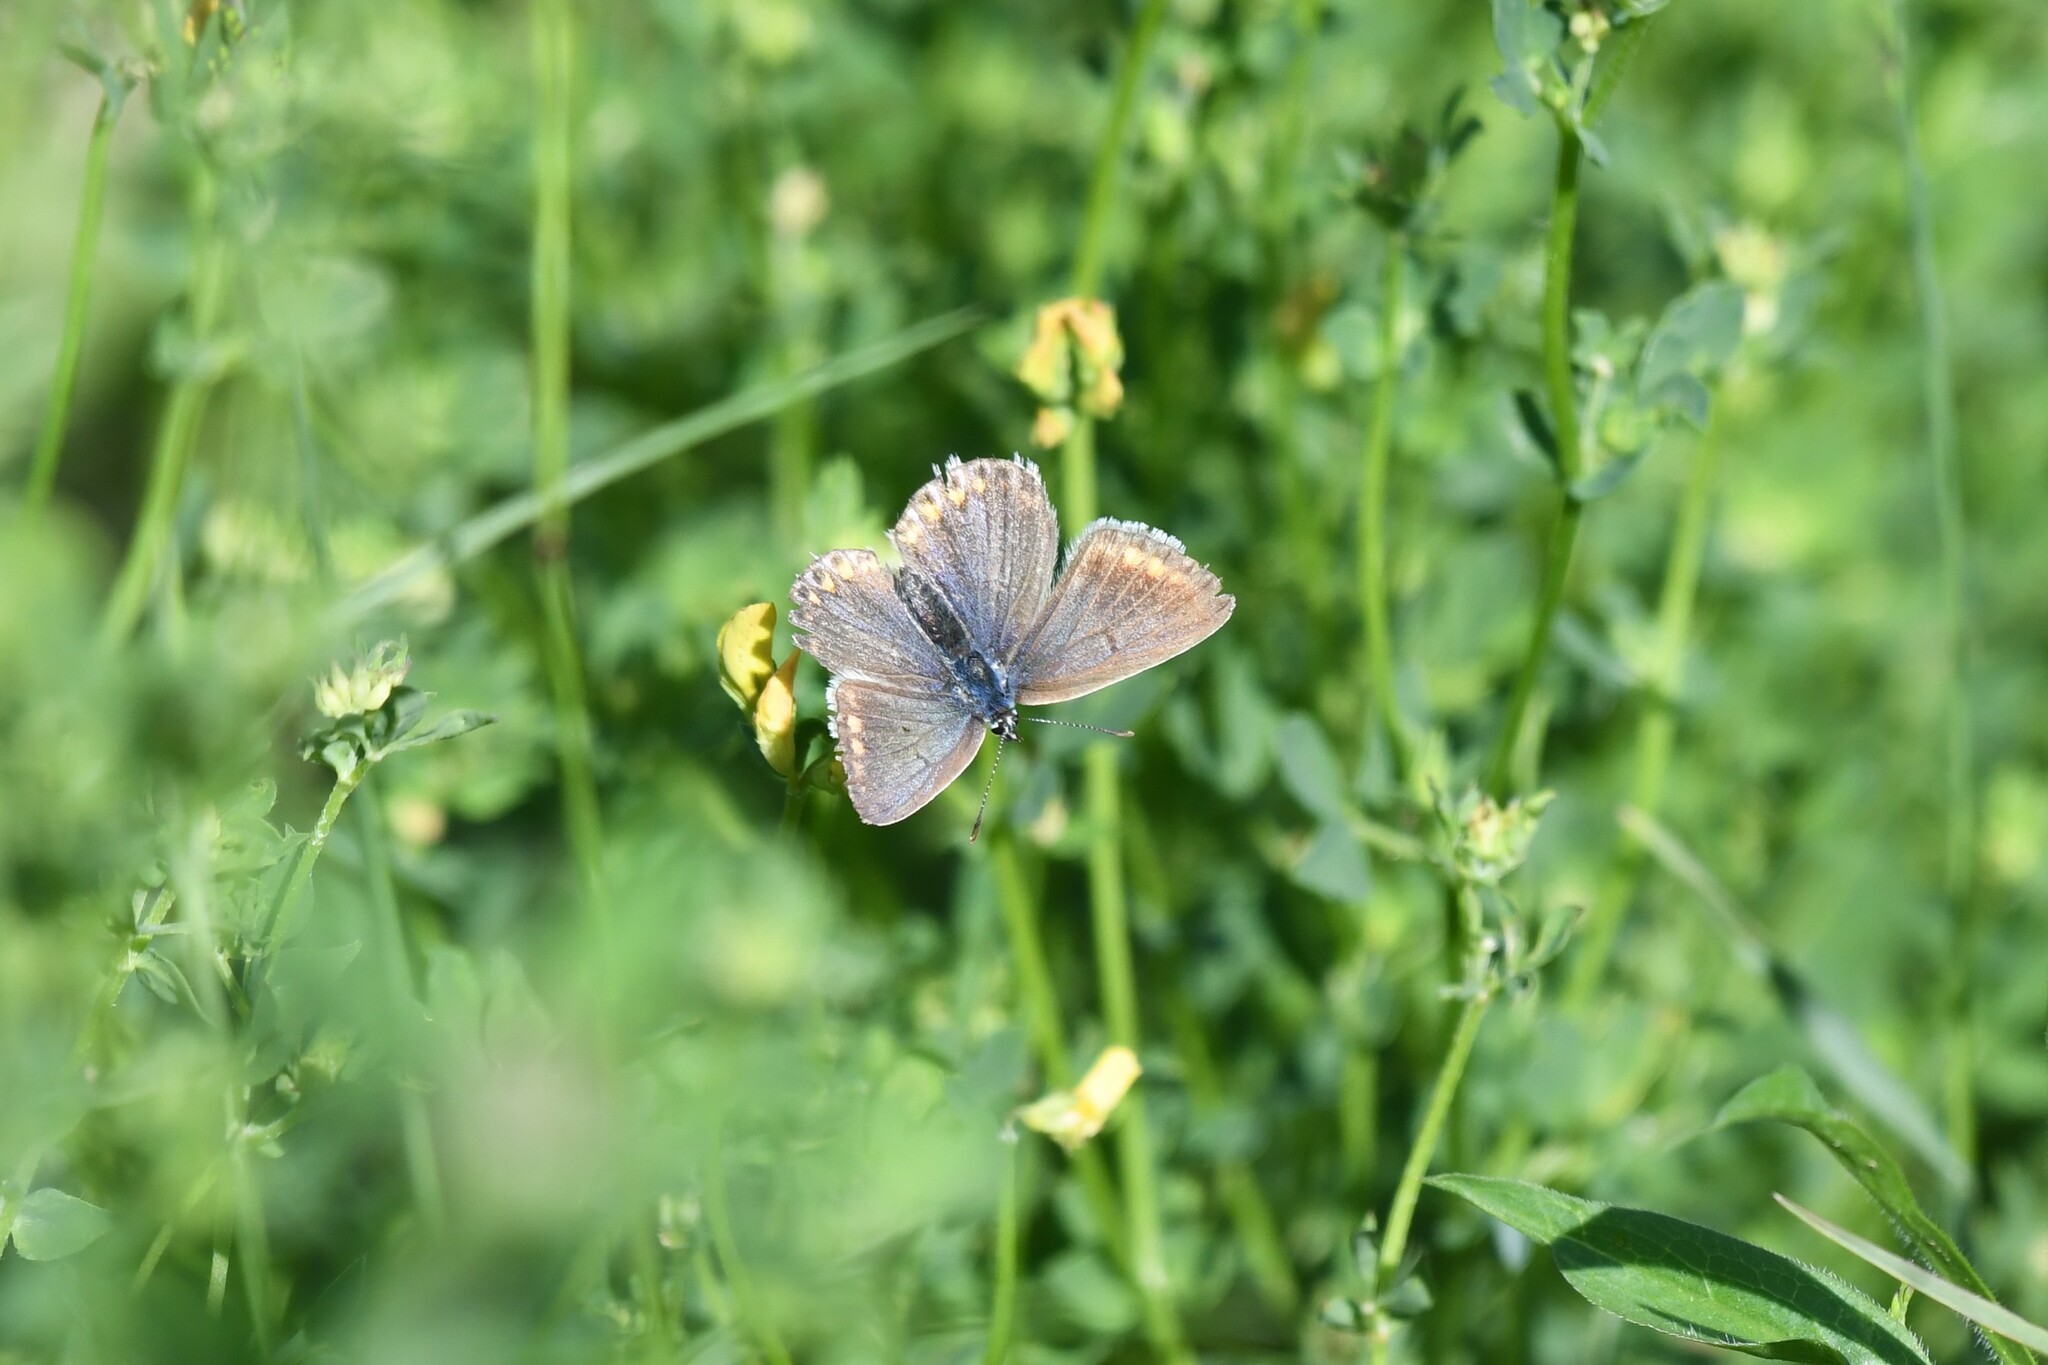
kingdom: Animalia
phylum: Arthropoda
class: Insecta
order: Lepidoptera
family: Lycaenidae
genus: Polyommatus
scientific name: Polyommatus icarus
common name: Common blue
